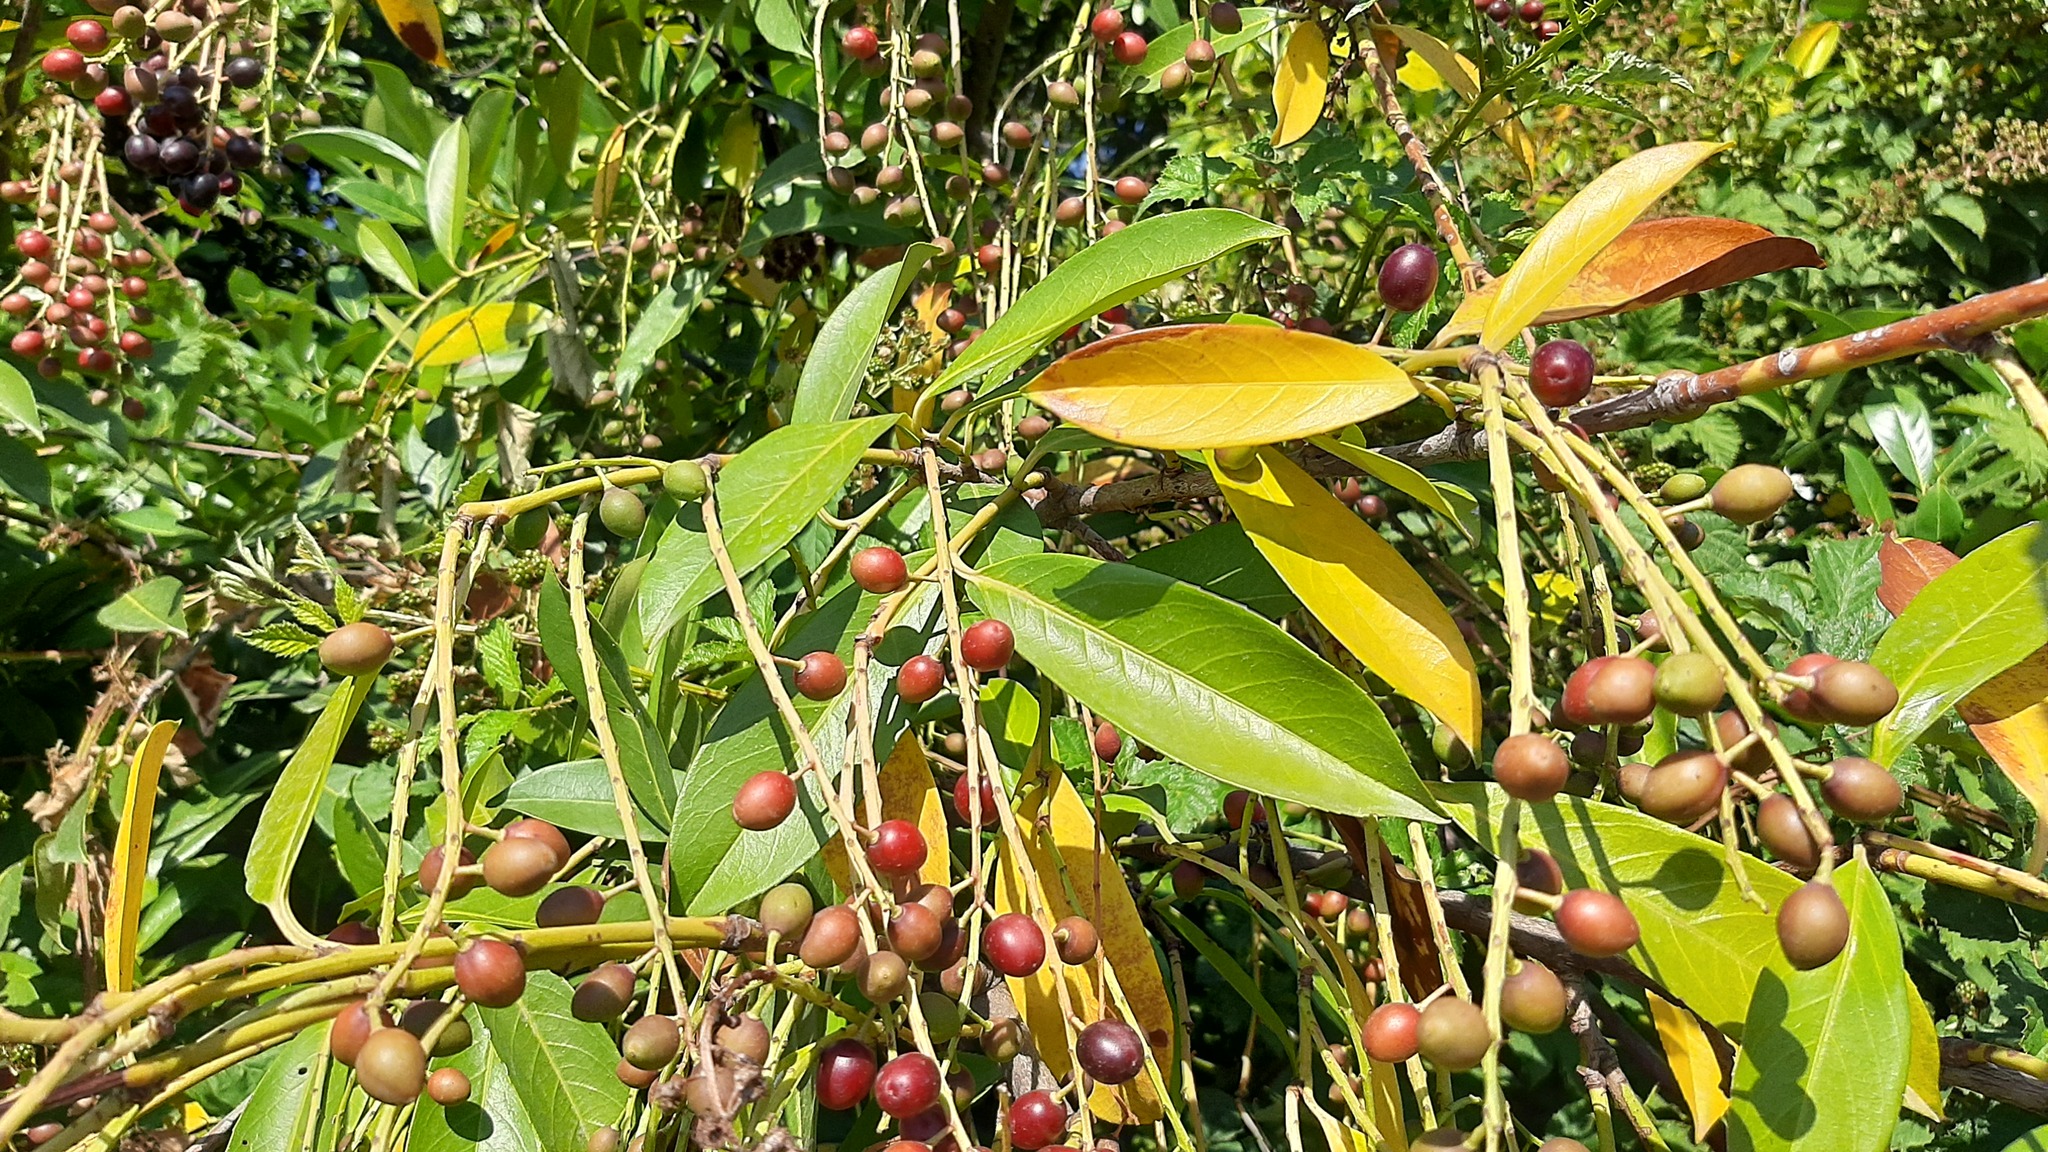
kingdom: Plantae
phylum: Tracheophyta
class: Magnoliopsida
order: Rosales
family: Rosaceae
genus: Prunus
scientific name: Prunus laurocerasus
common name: Cherry laurel
